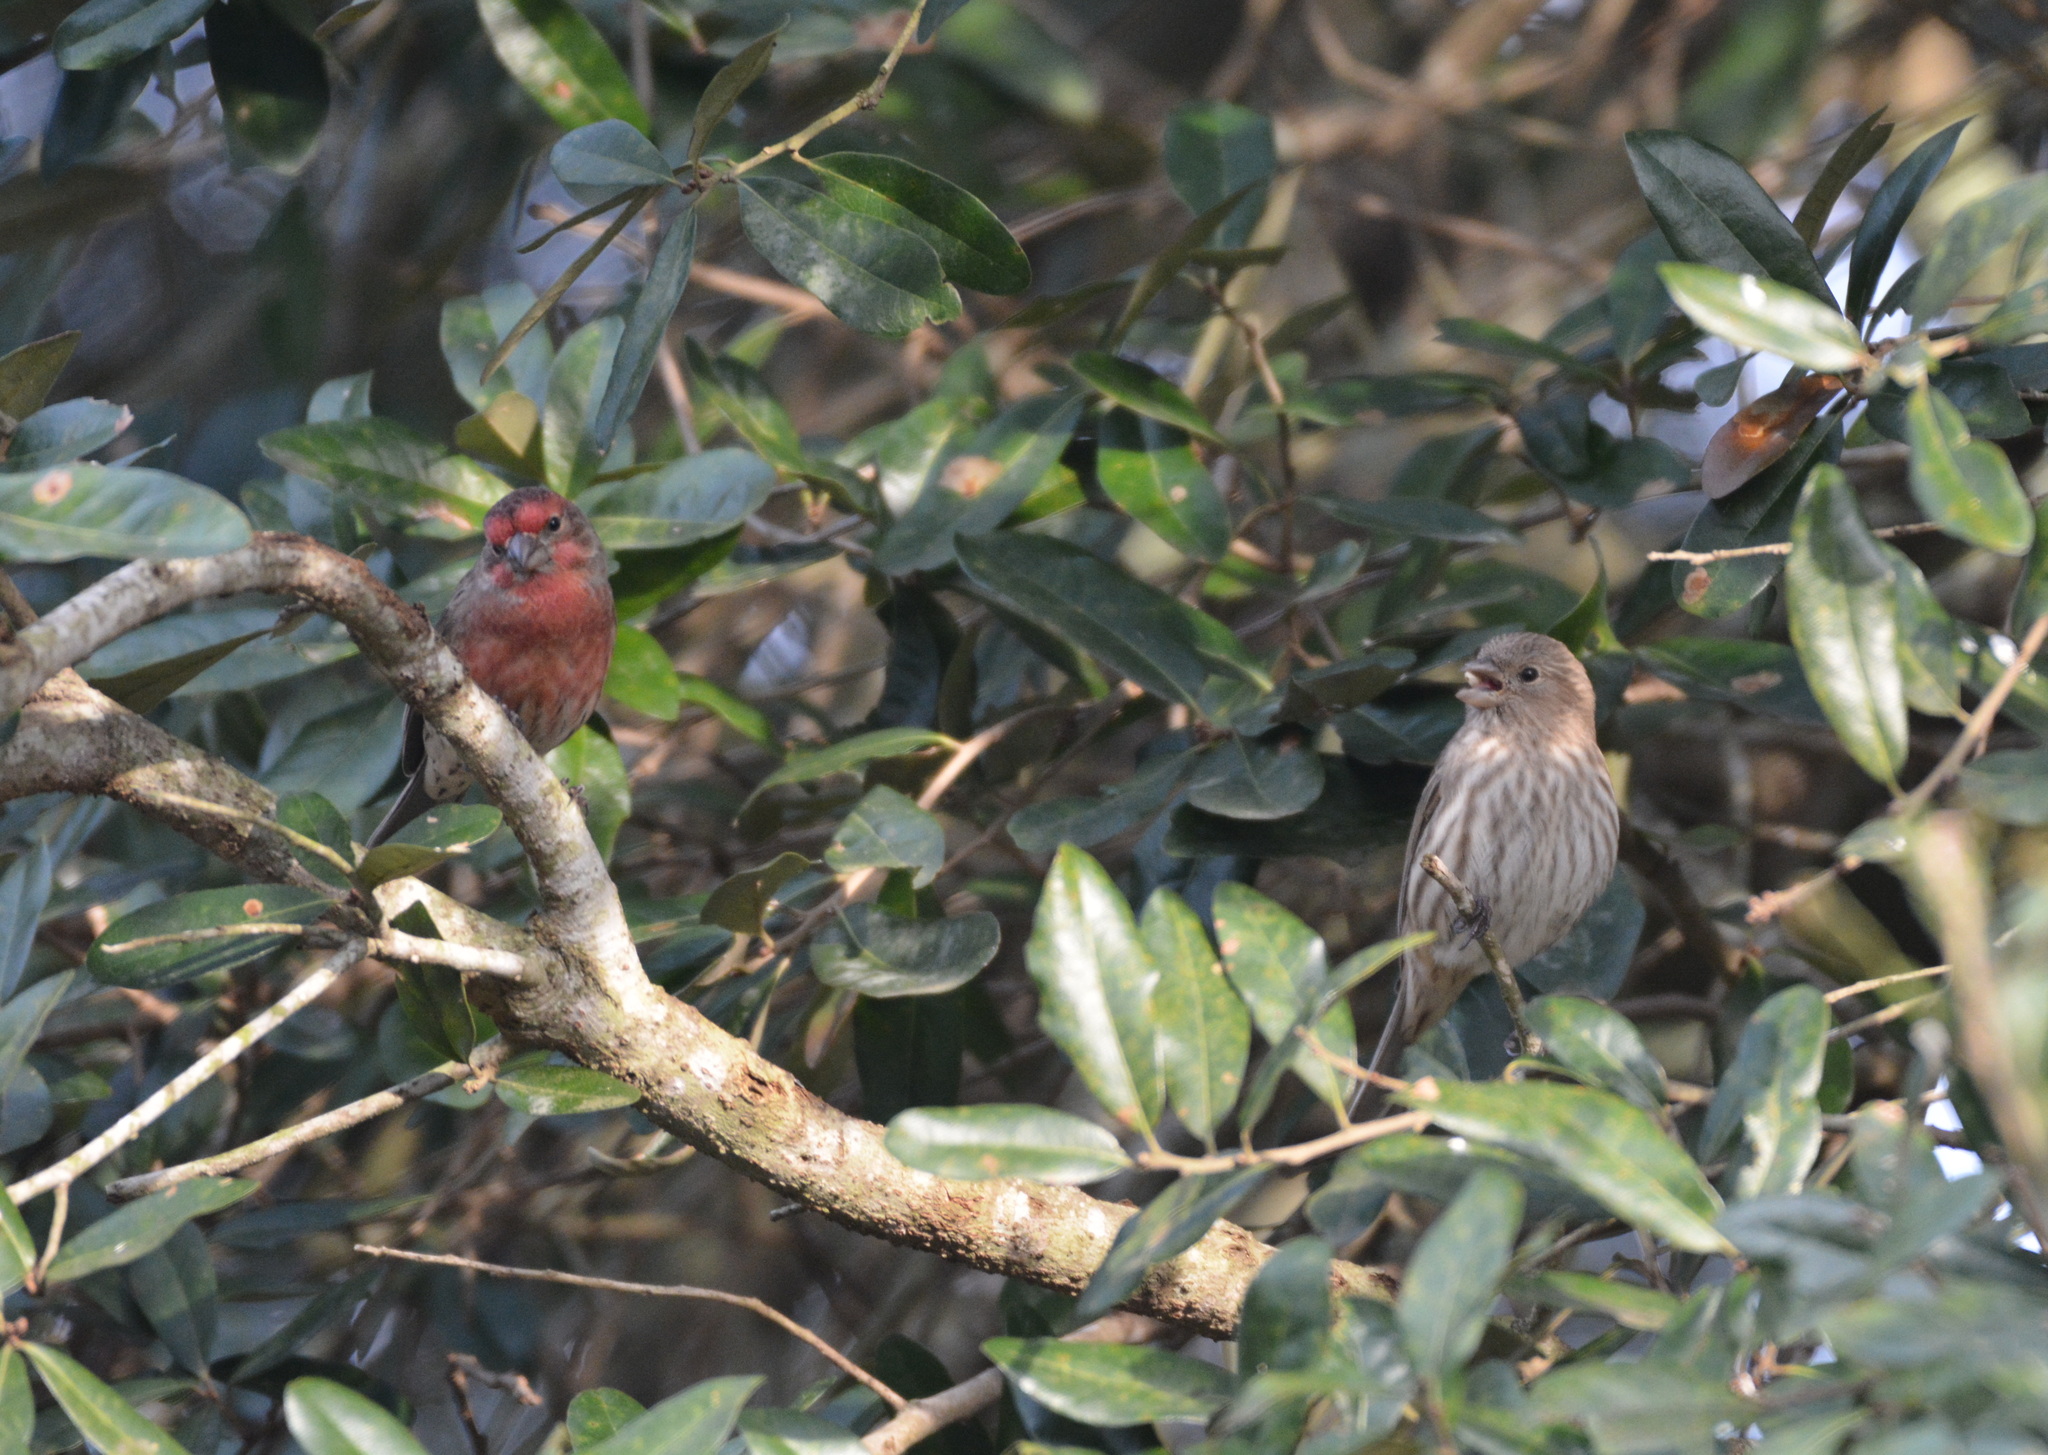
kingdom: Animalia
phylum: Chordata
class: Aves
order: Passeriformes
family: Fringillidae
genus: Haemorhous
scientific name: Haemorhous mexicanus
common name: House finch
